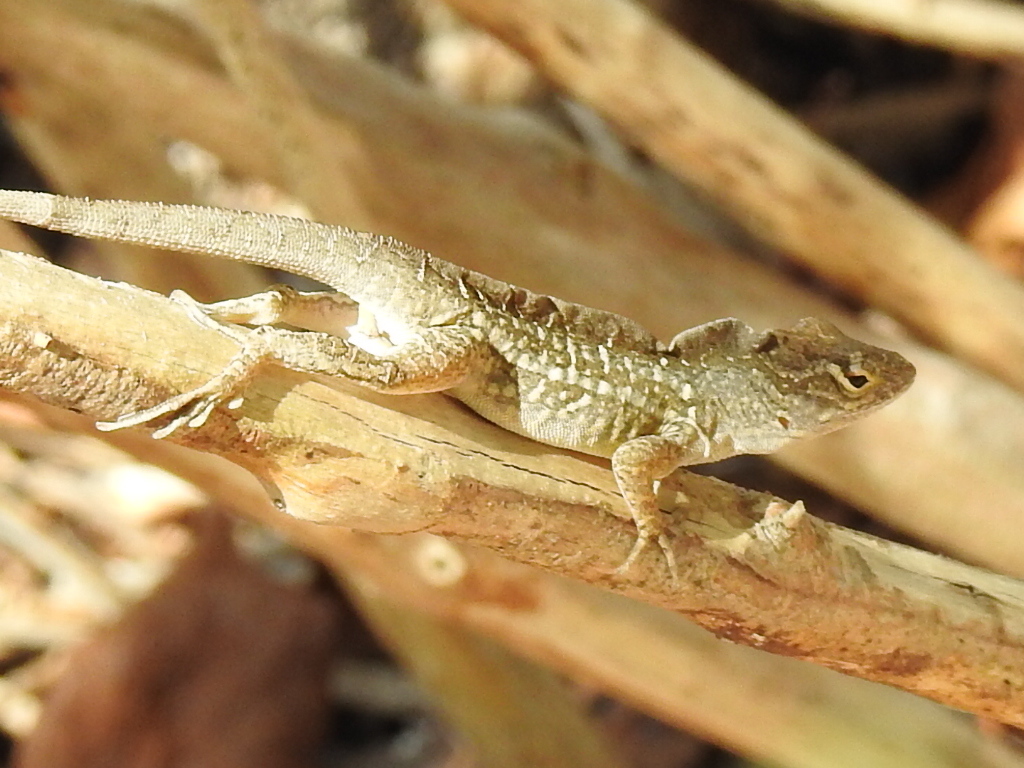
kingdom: Animalia
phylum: Chordata
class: Squamata
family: Dactyloidae
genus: Anolis
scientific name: Anolis sagrei
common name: Brown anole
